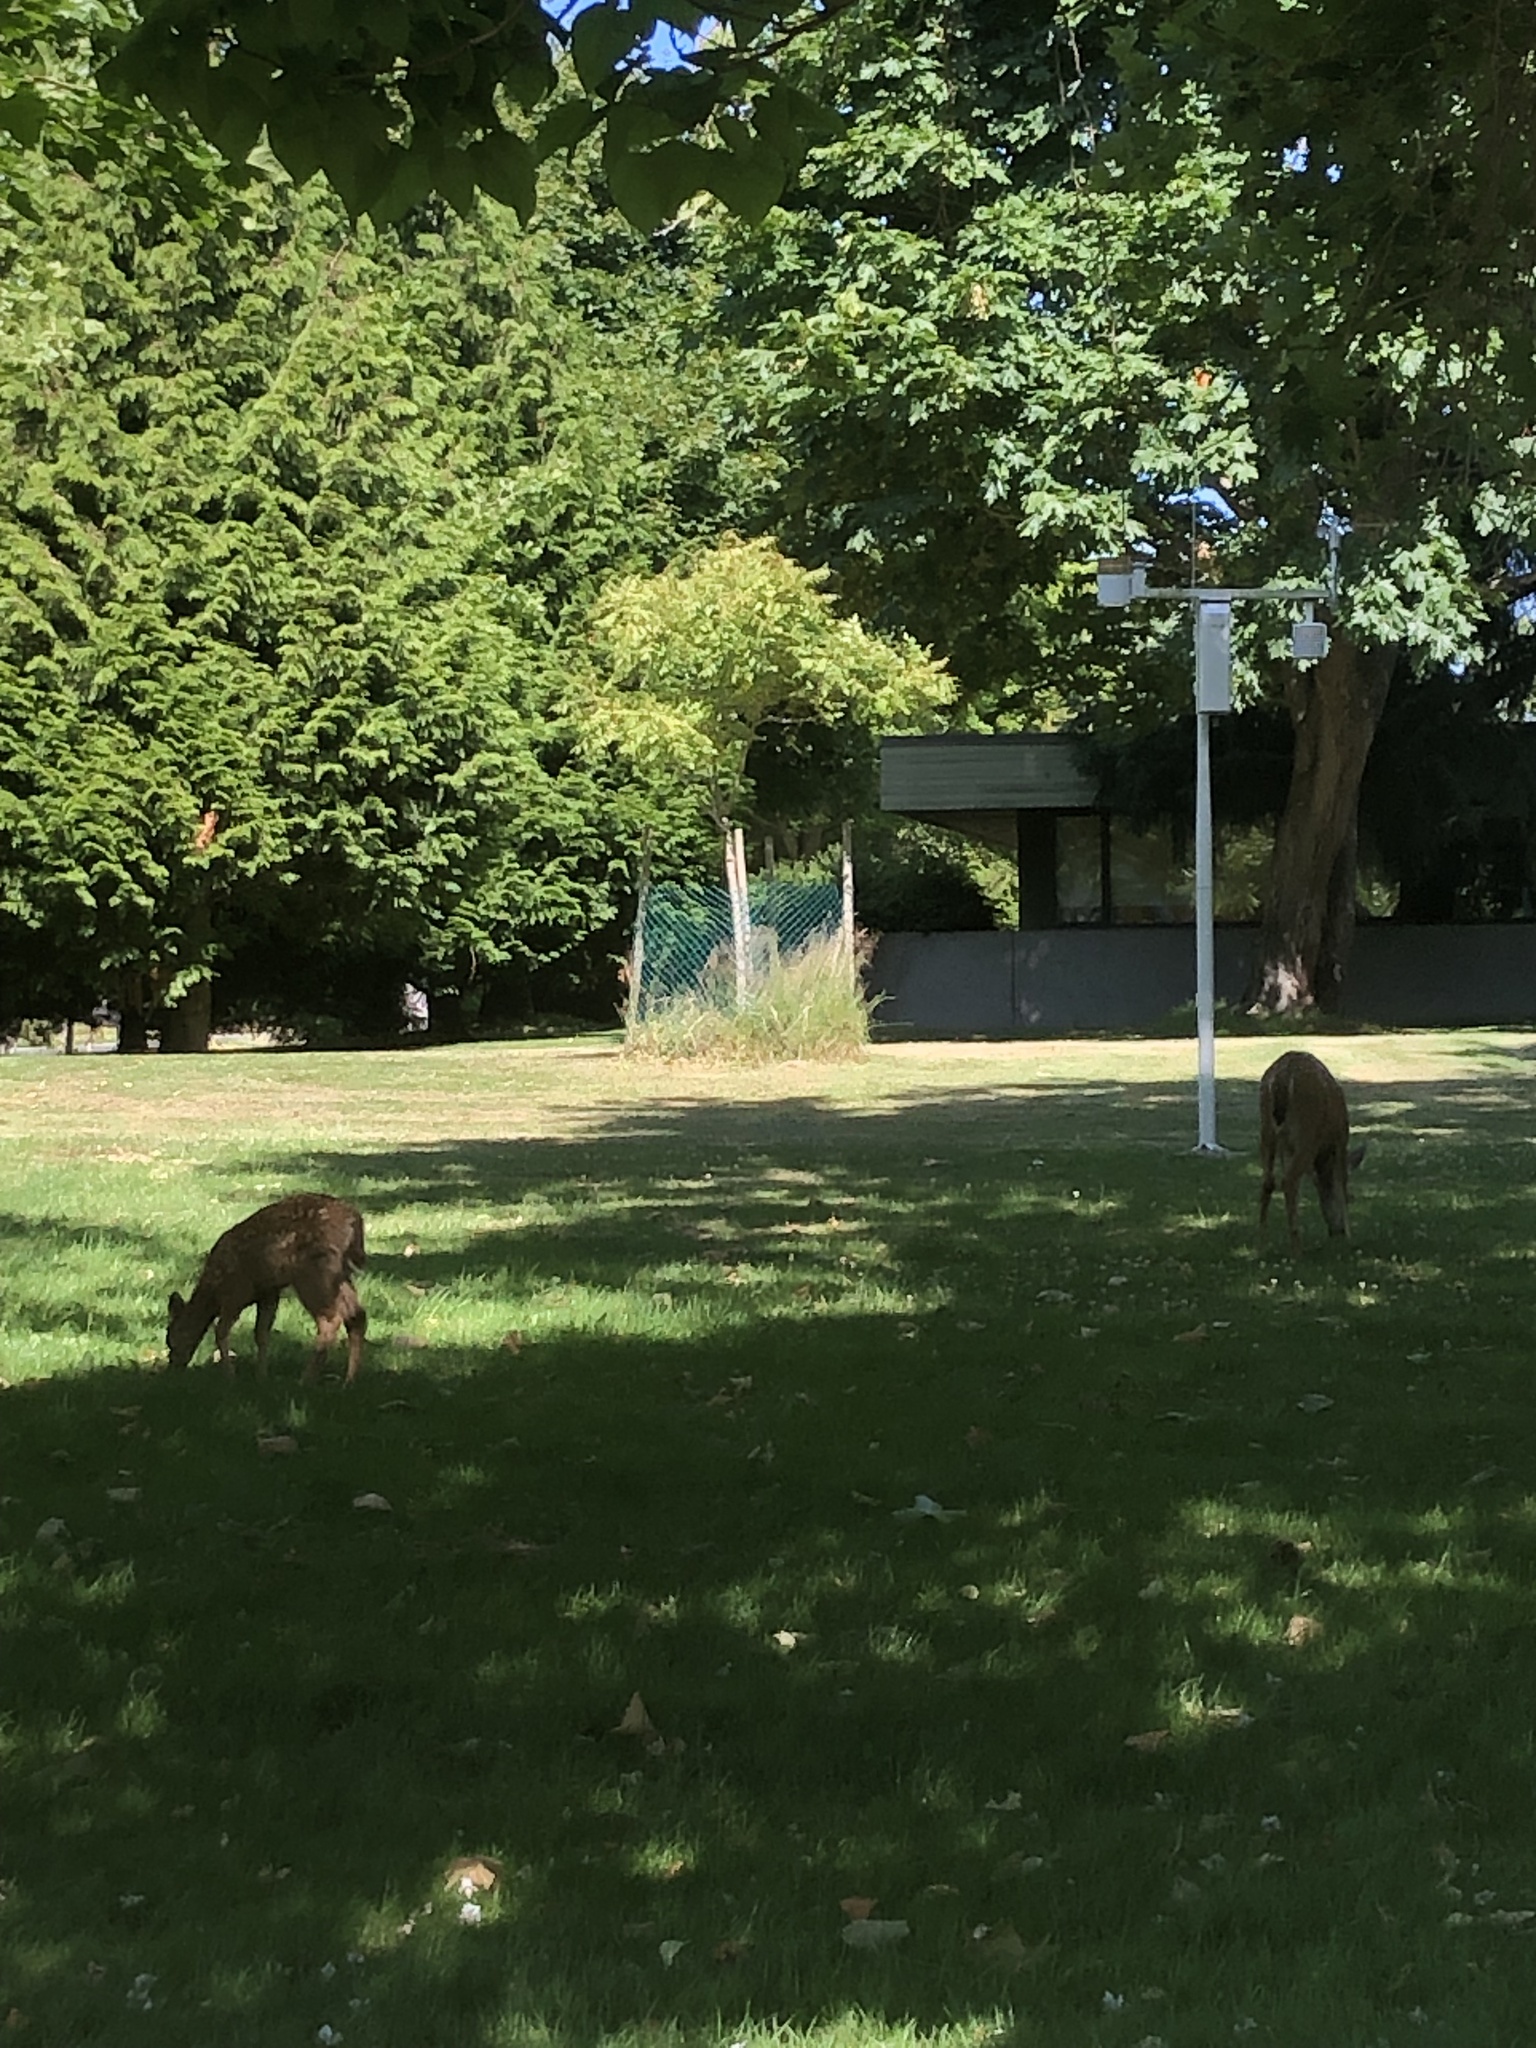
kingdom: Animalia
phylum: Chordata
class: Mammalia
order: Artiodactyla
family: Cervidae
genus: Odocoileus
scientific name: Odocoileus hemionus
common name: Mule deer
